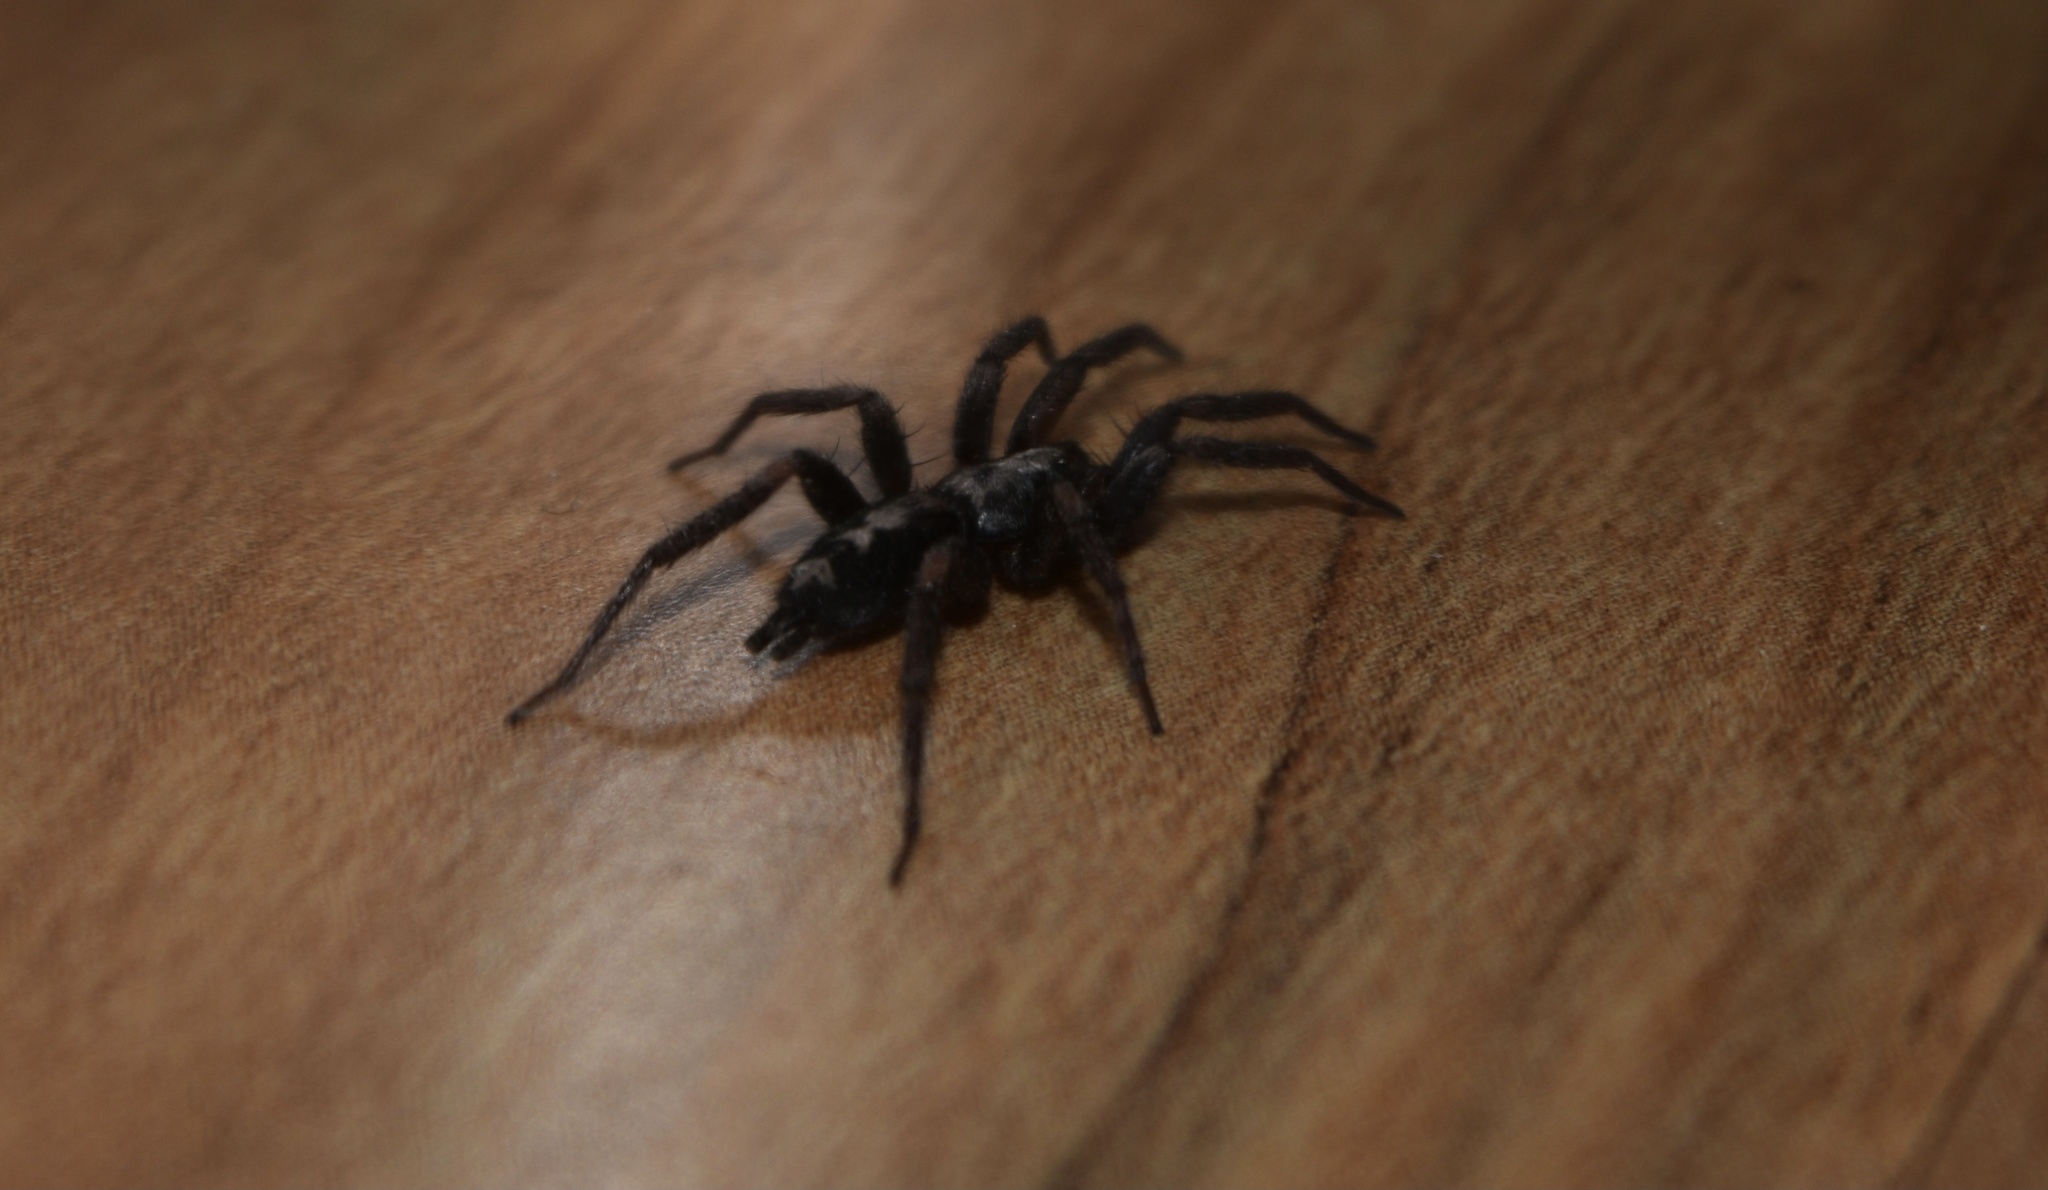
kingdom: Animalia
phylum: Arthropoda
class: Arachnida
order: Araneae
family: Gnaphosidae
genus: Herpyllus
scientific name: Herpyllus ecclesiasticus
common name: Eastern parson spider
